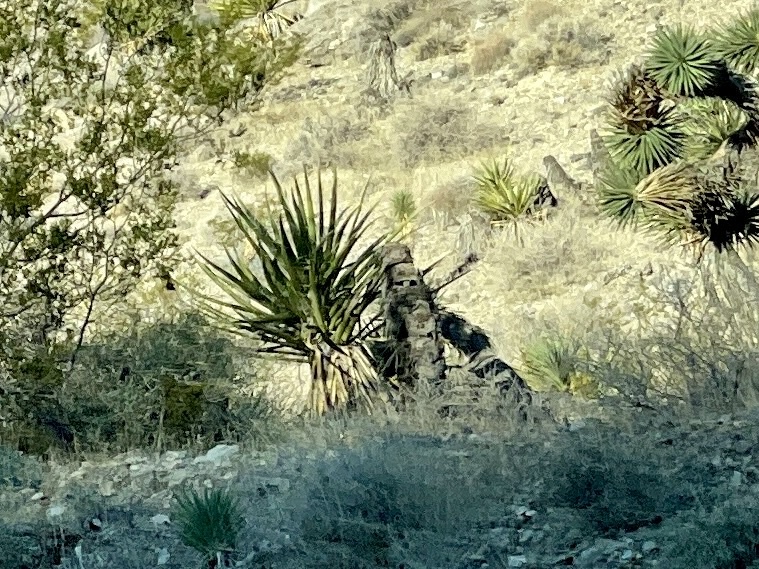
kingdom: Plantae
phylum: Tracheophyta
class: Liliopsida
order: Asparagales
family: Asparagaceae
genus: Yucca
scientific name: Yucca schidigera
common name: Mojave yucca
